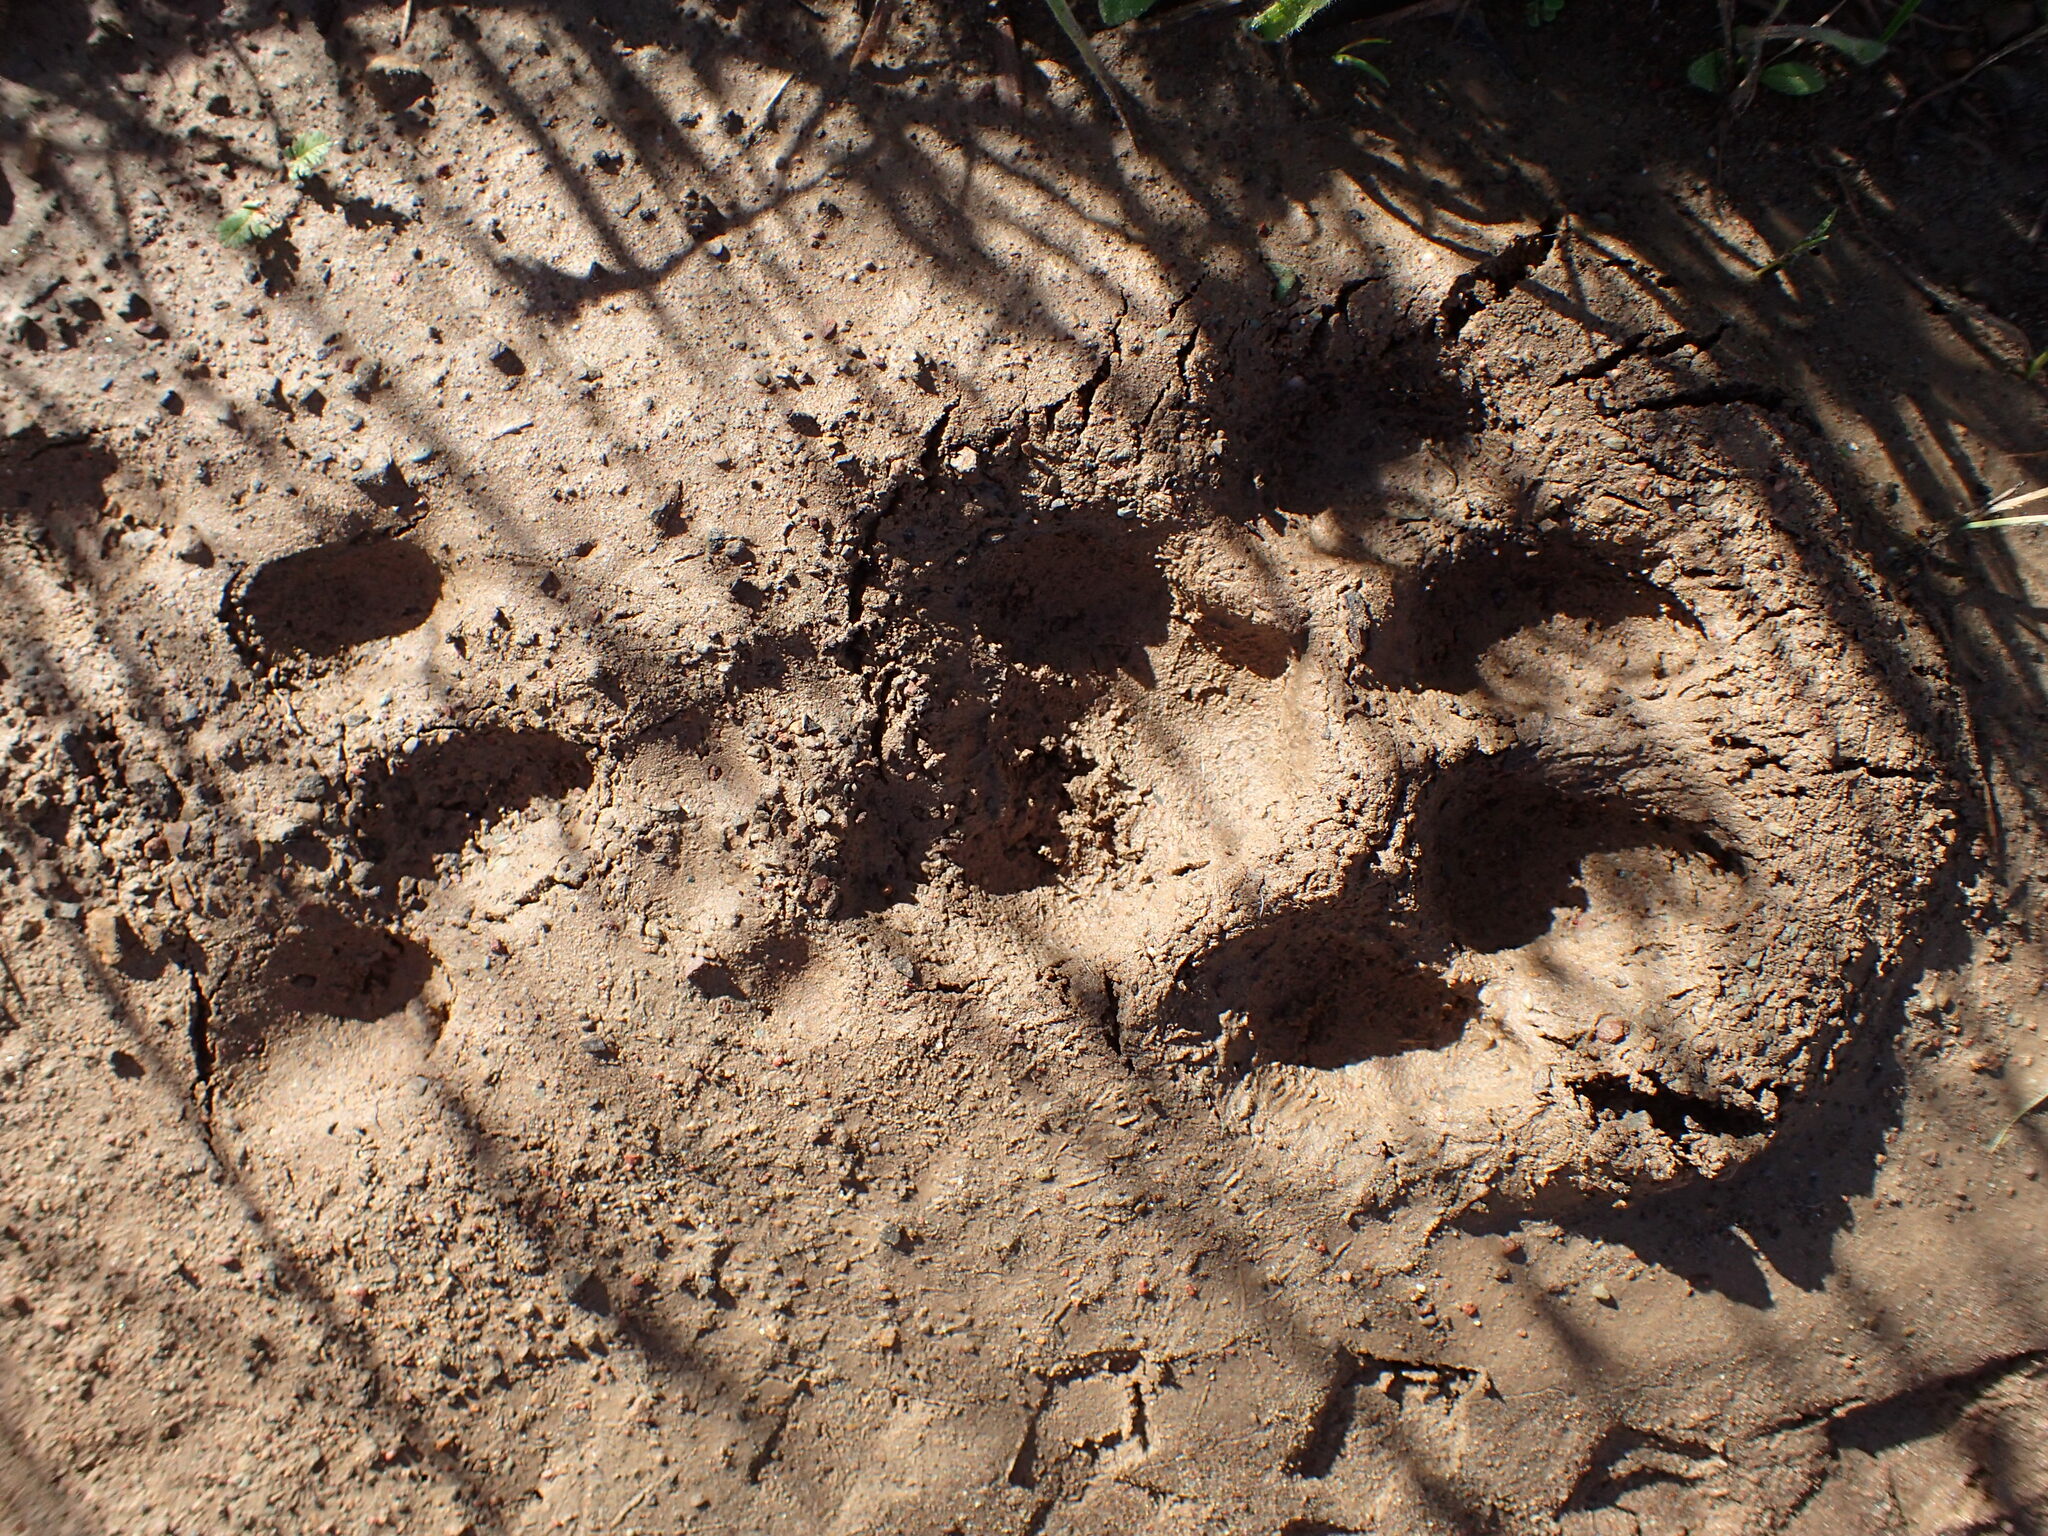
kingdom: Animalia
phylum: Chordata
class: Mammalia
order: Carnivora
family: Felidae
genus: Puma
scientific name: Puma concolor
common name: Puma
